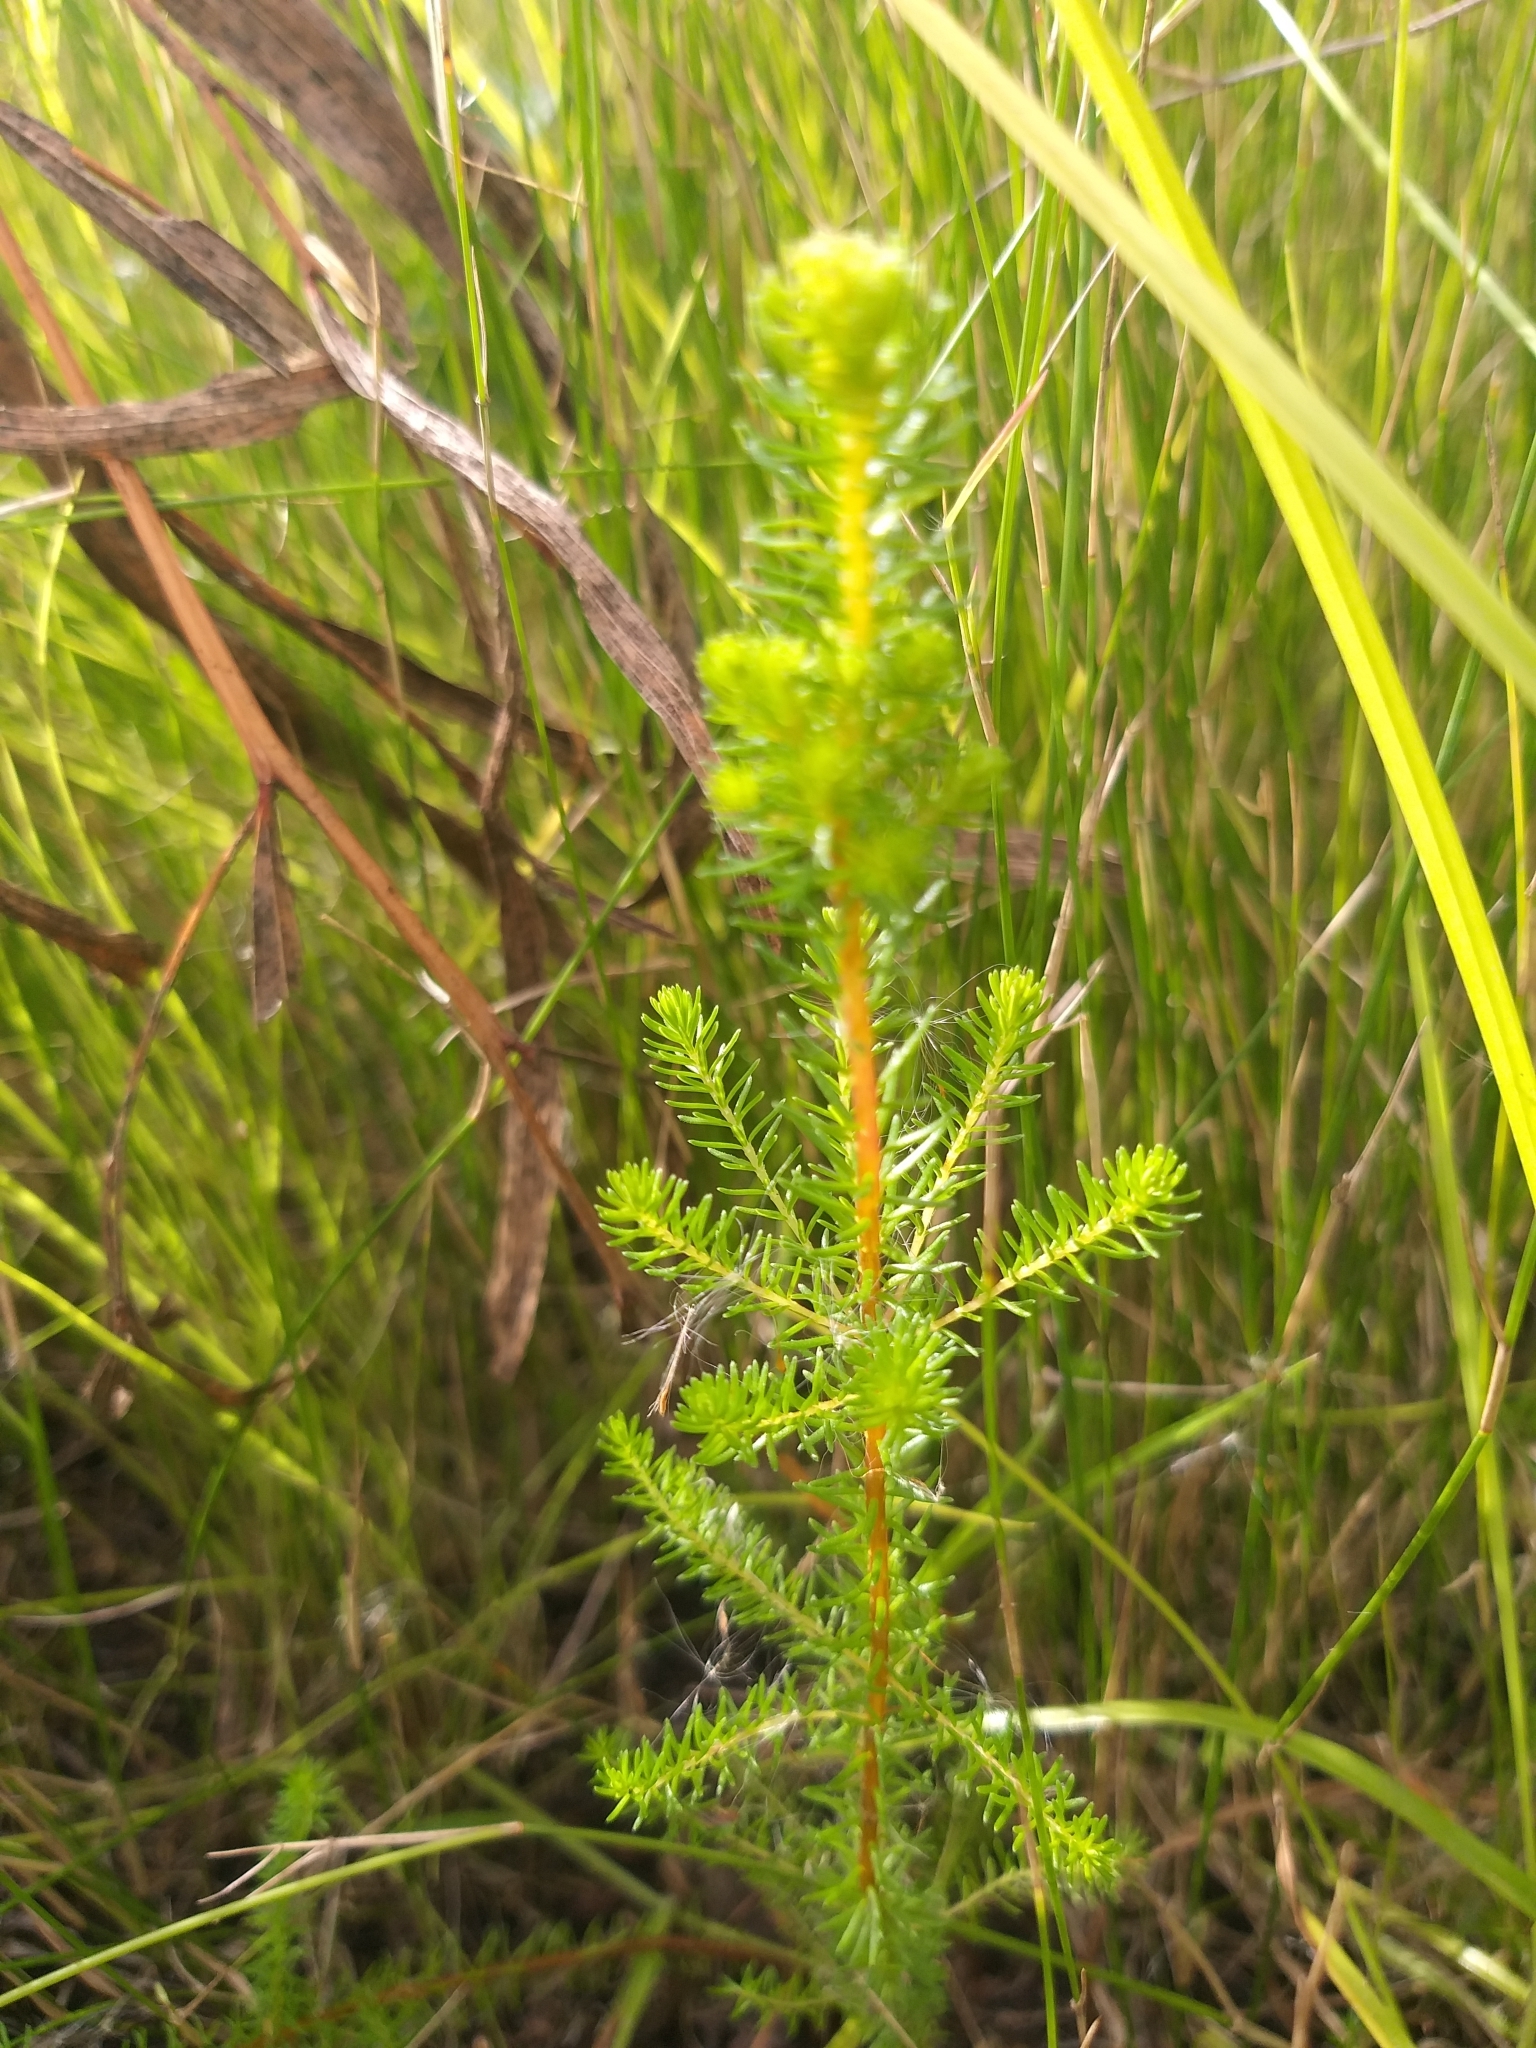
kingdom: Plantae
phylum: Tracheophyta
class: Magnoliopsida
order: Ericales
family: Ericaceae
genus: Erica
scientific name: Erica verticillata
